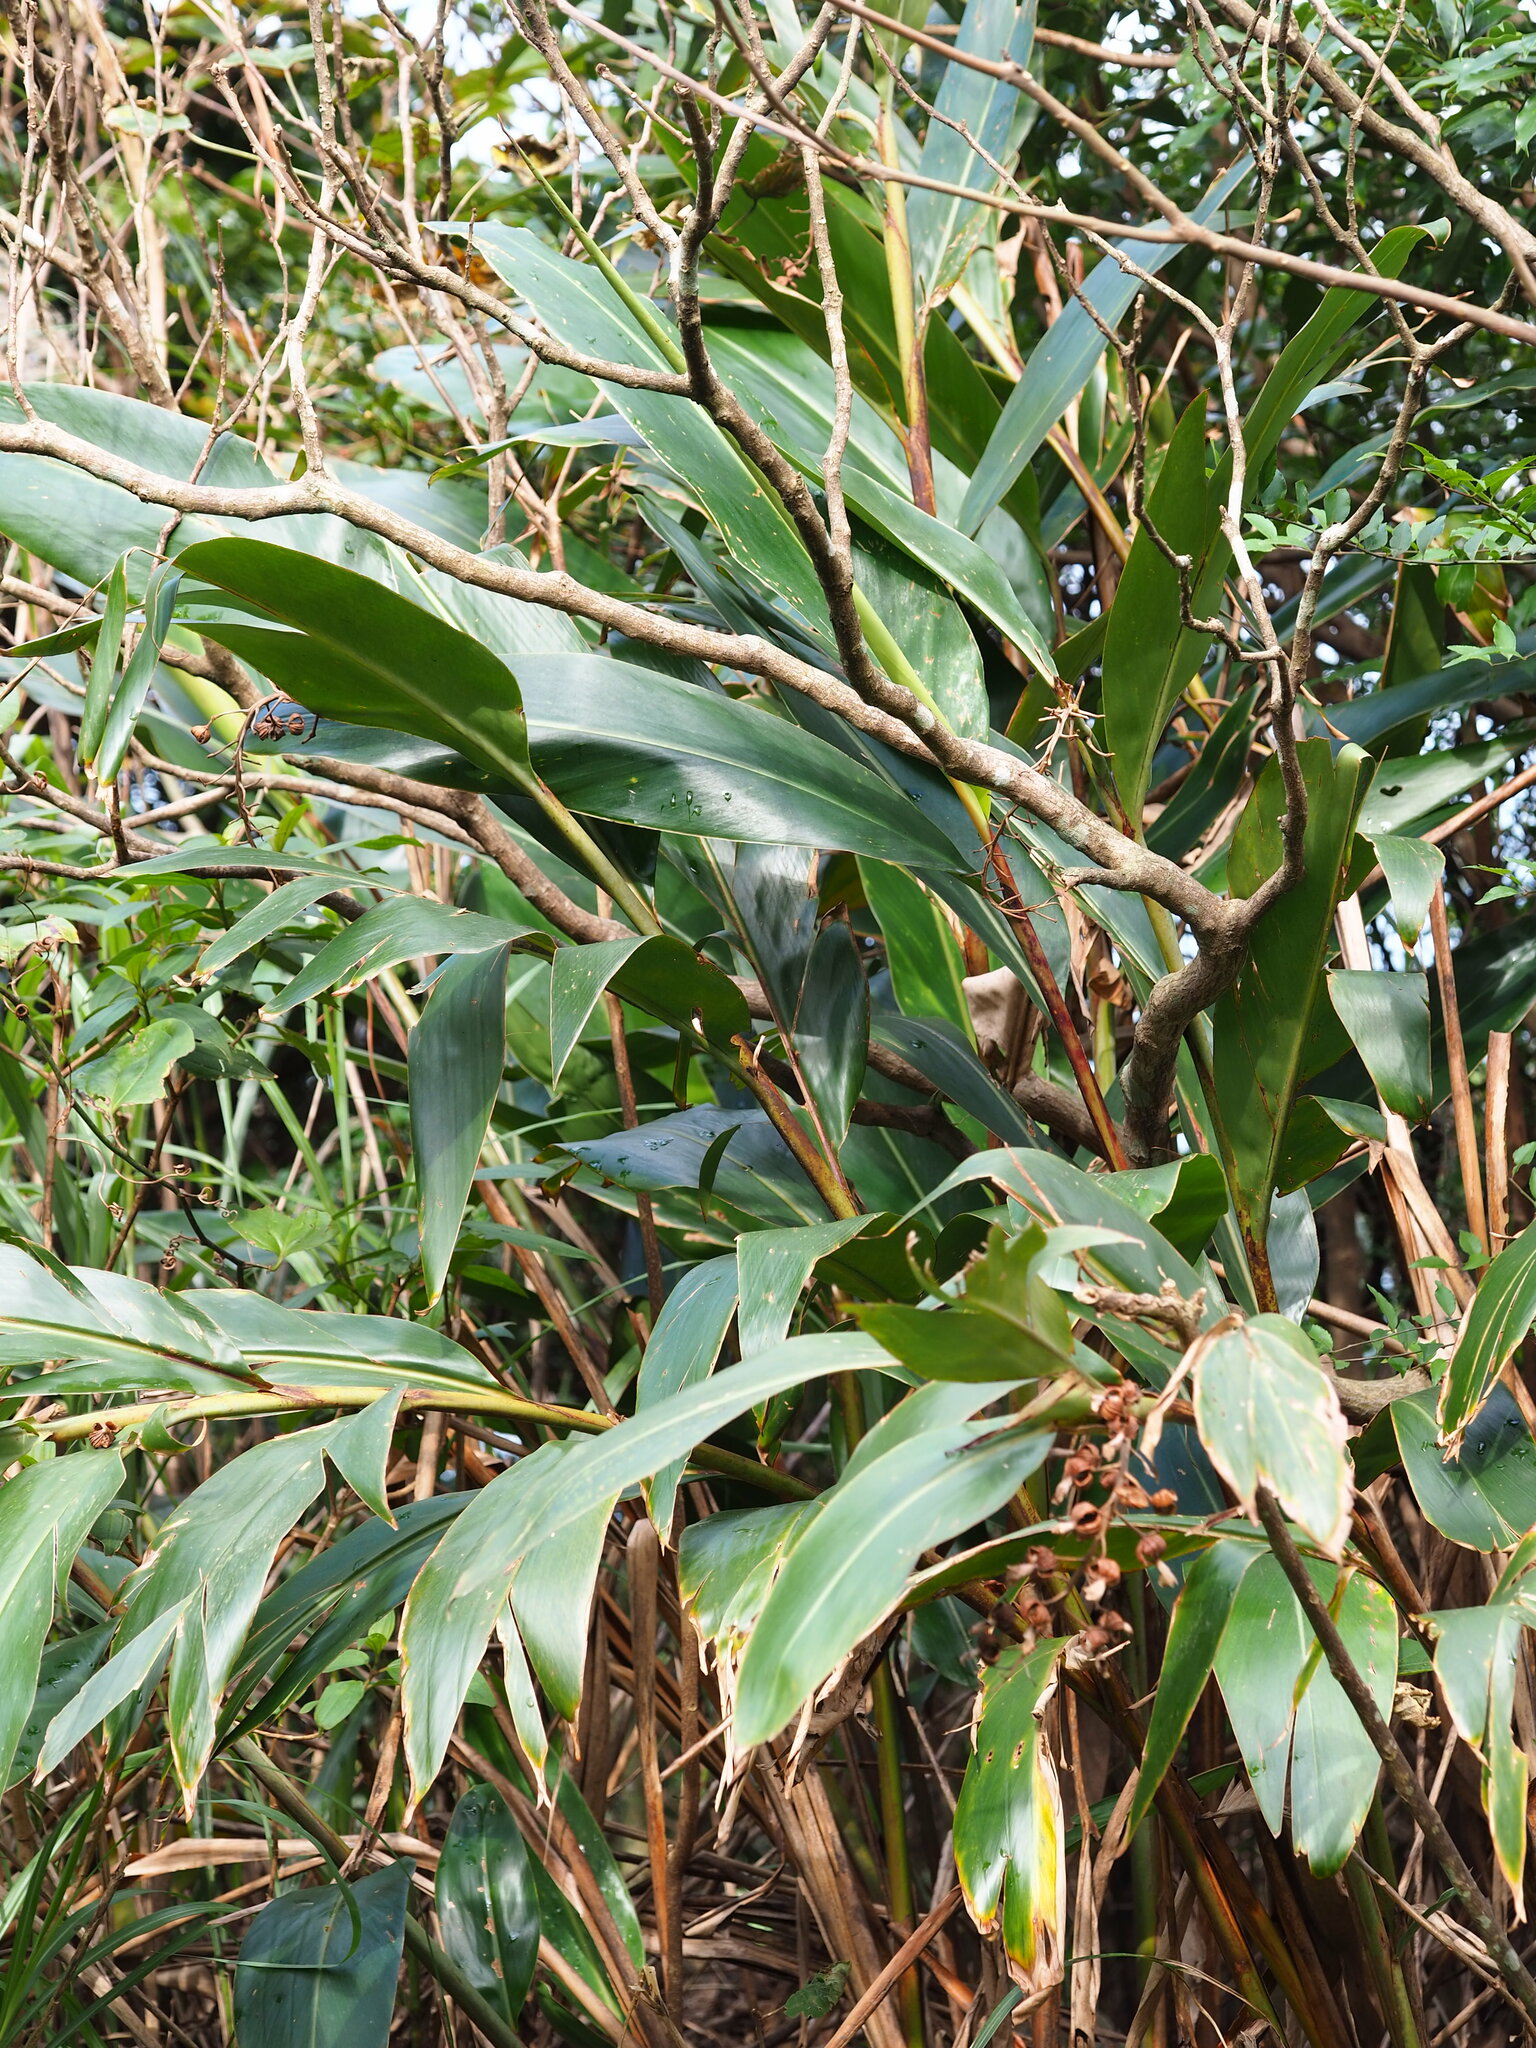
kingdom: Plantae
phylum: Tracheophyta
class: Liliopsida
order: Zingiberales
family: Zingiberaceae
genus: Alpinia
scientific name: Alpinia zerumbet
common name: Shellplant
